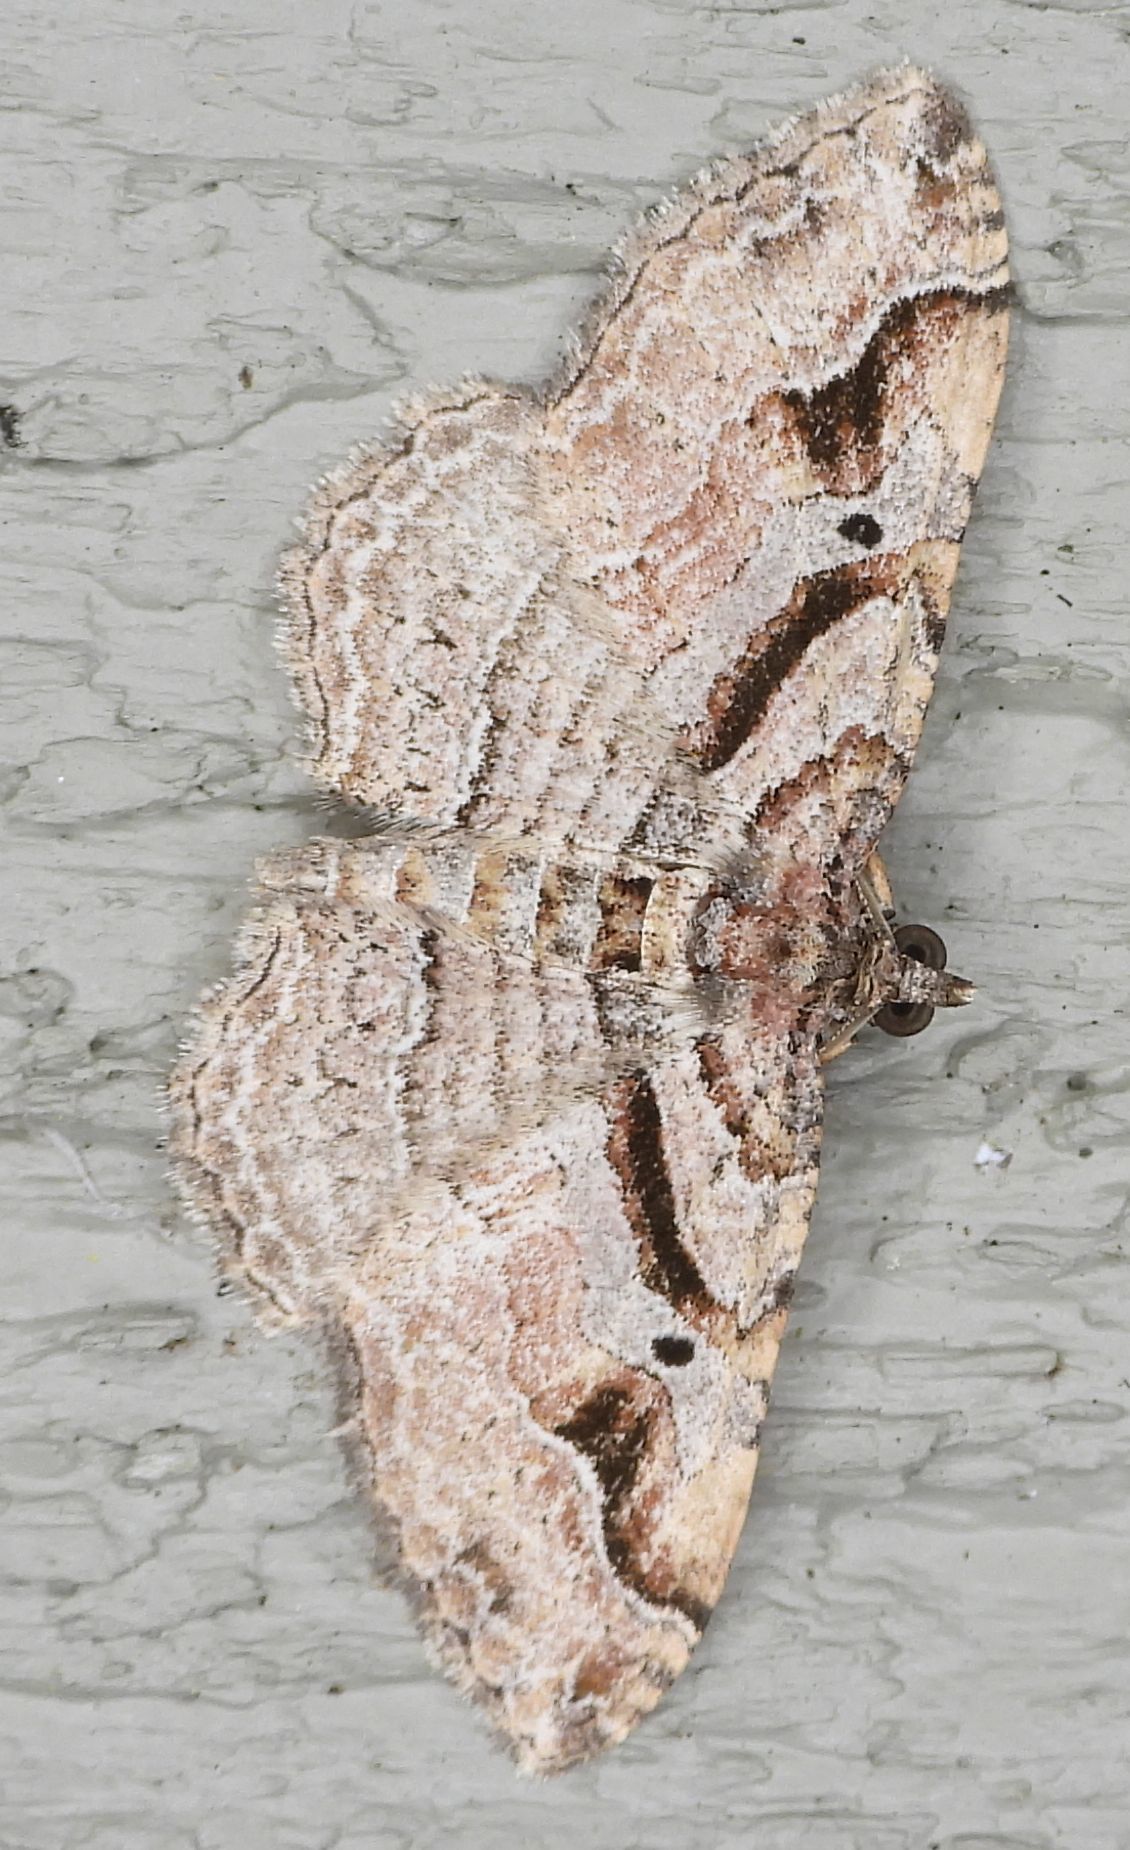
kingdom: Animalia
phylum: Arthropoda
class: Insecta
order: Lepidoptera
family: Geometridae
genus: Costaconvexa
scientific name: Costaconvexa centrostrigaria
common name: Bent-line carpet
